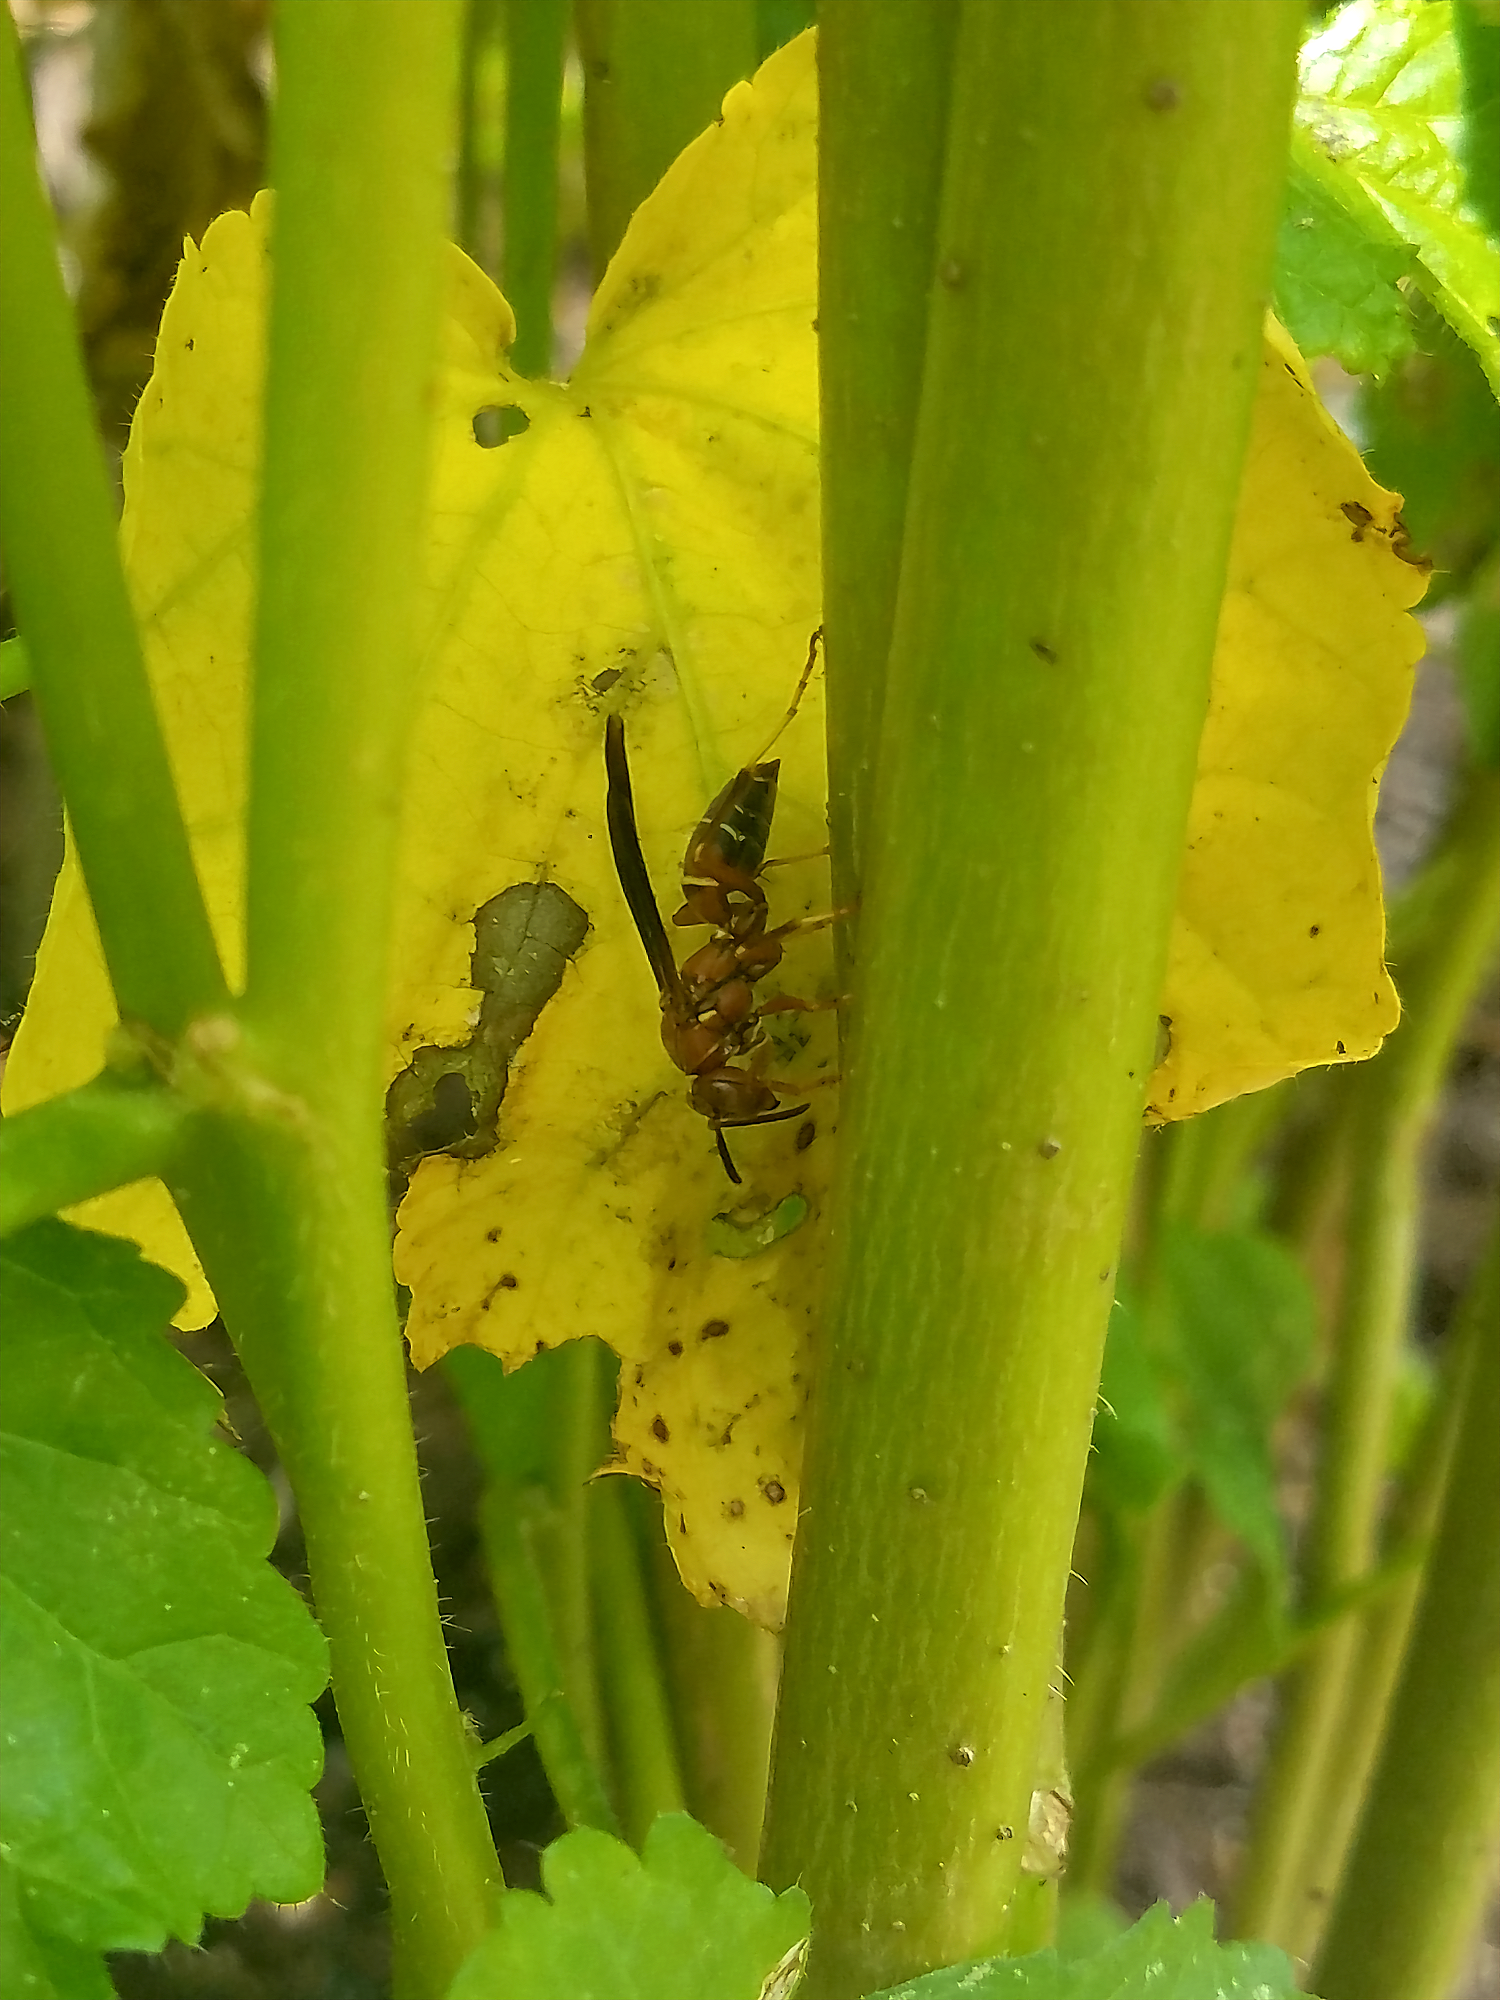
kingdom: Animalia
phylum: Arthropoda
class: Insecta
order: Hymenoptera
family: Eumenidae
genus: Polistes
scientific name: Polistes fuscatus
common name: Dark paper wasp
